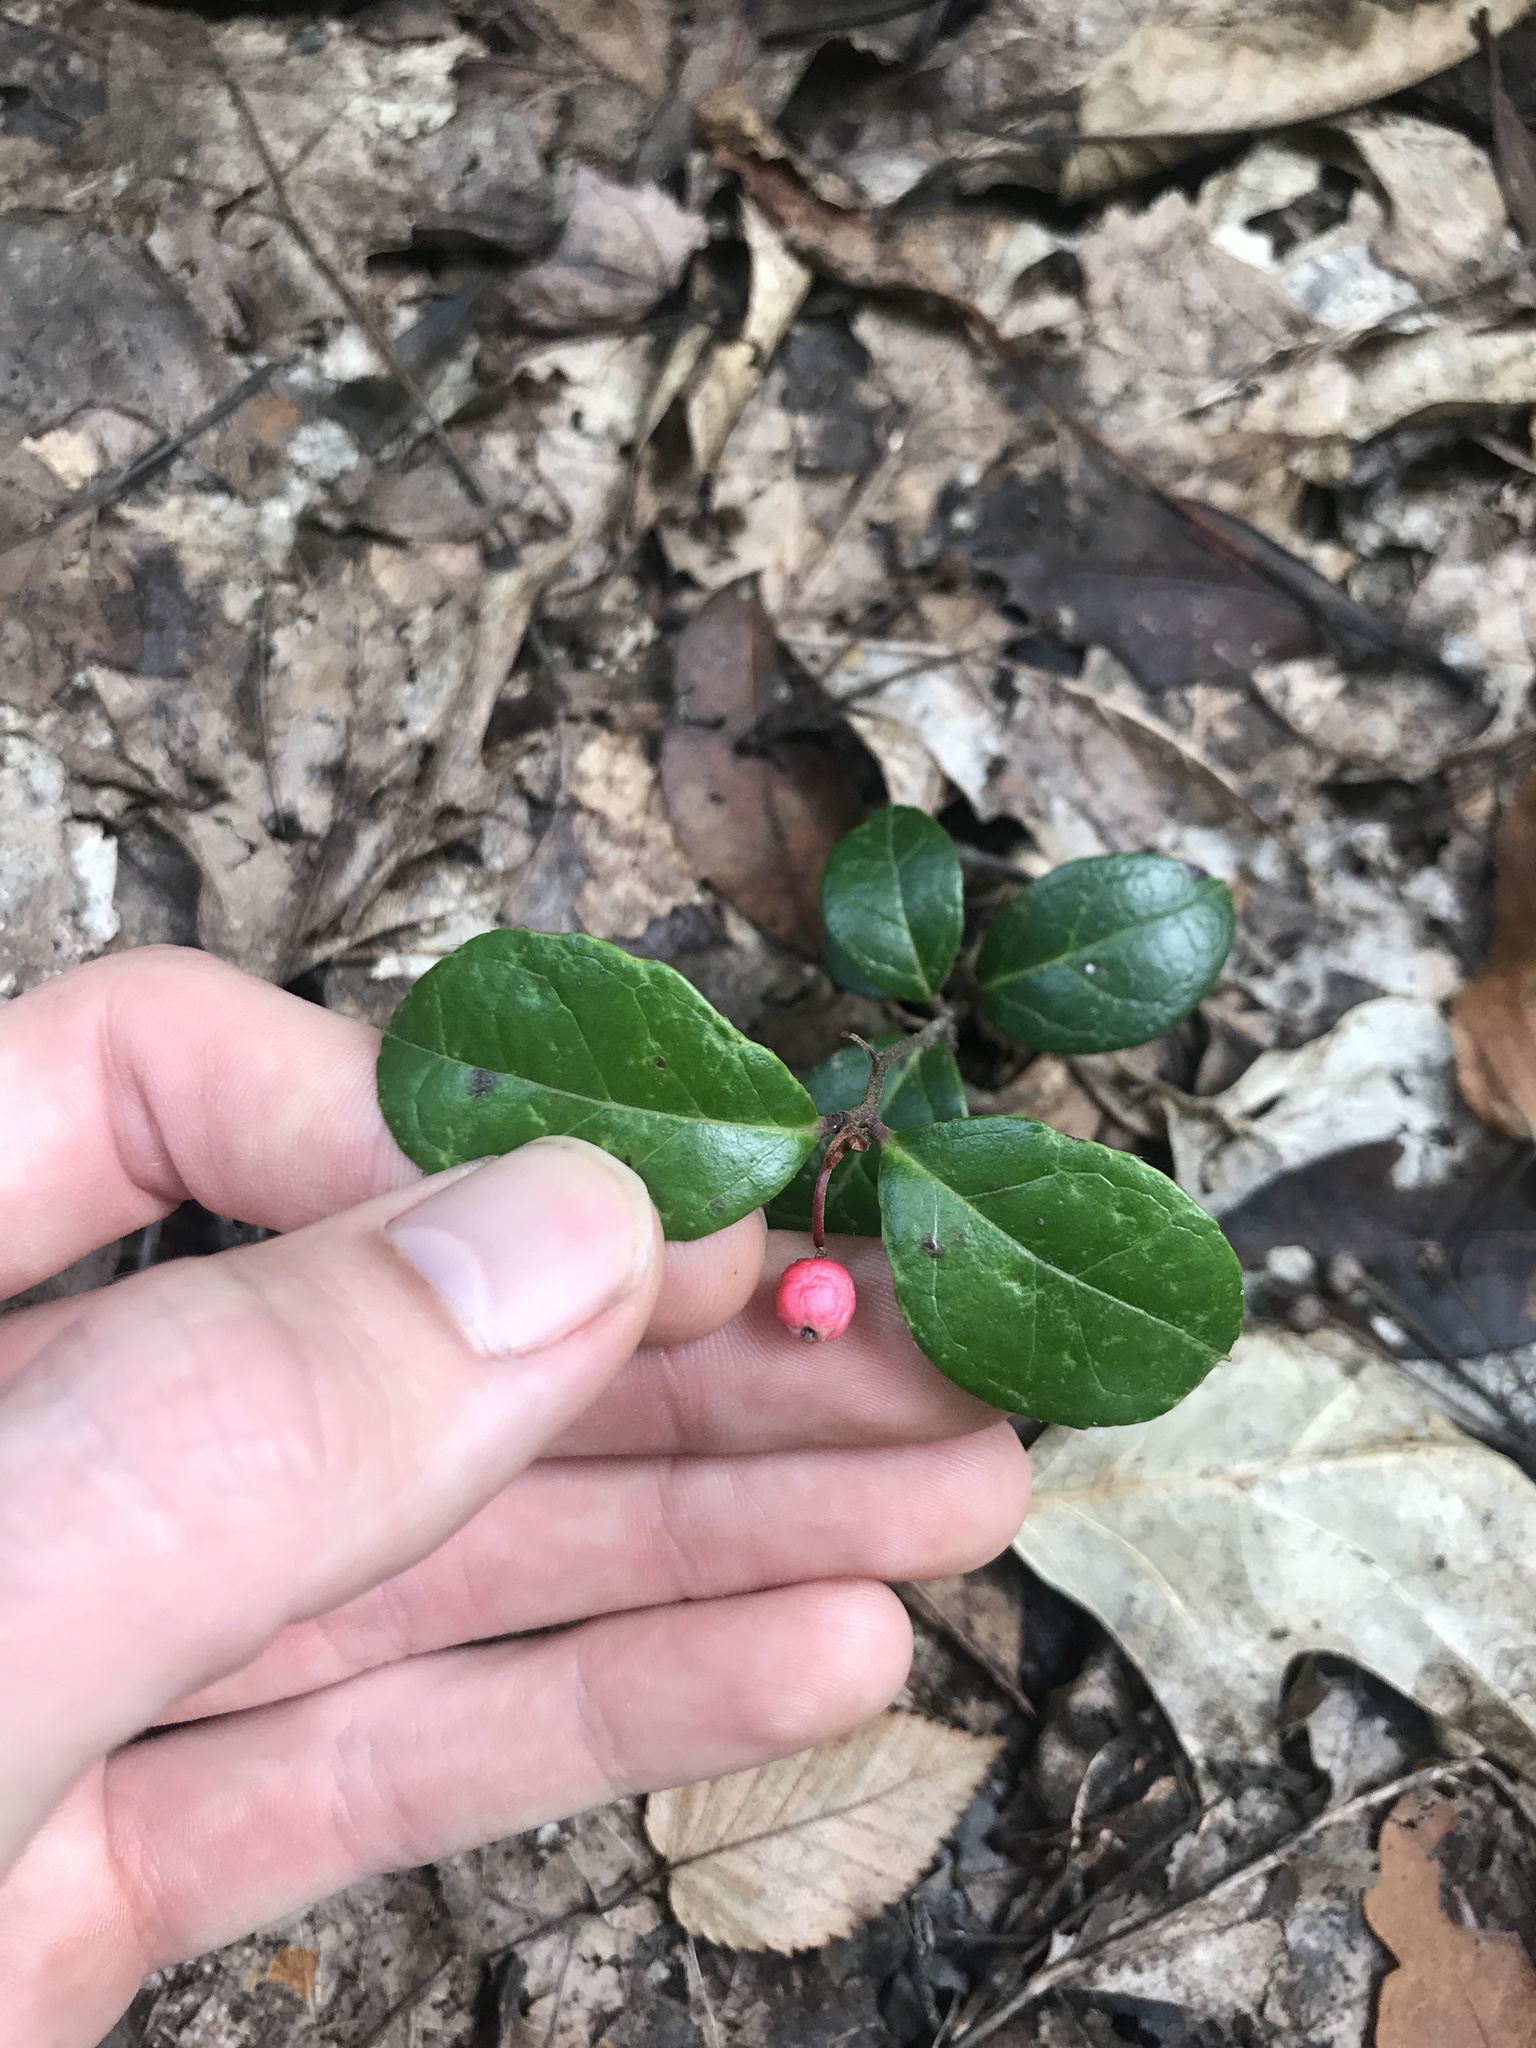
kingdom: Plantae
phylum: Tracheophyta
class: Magnoliopsida
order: Ericales
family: Ericaceae
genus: Gaultheria
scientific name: Gaultheria procumbens
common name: Checkerberry
